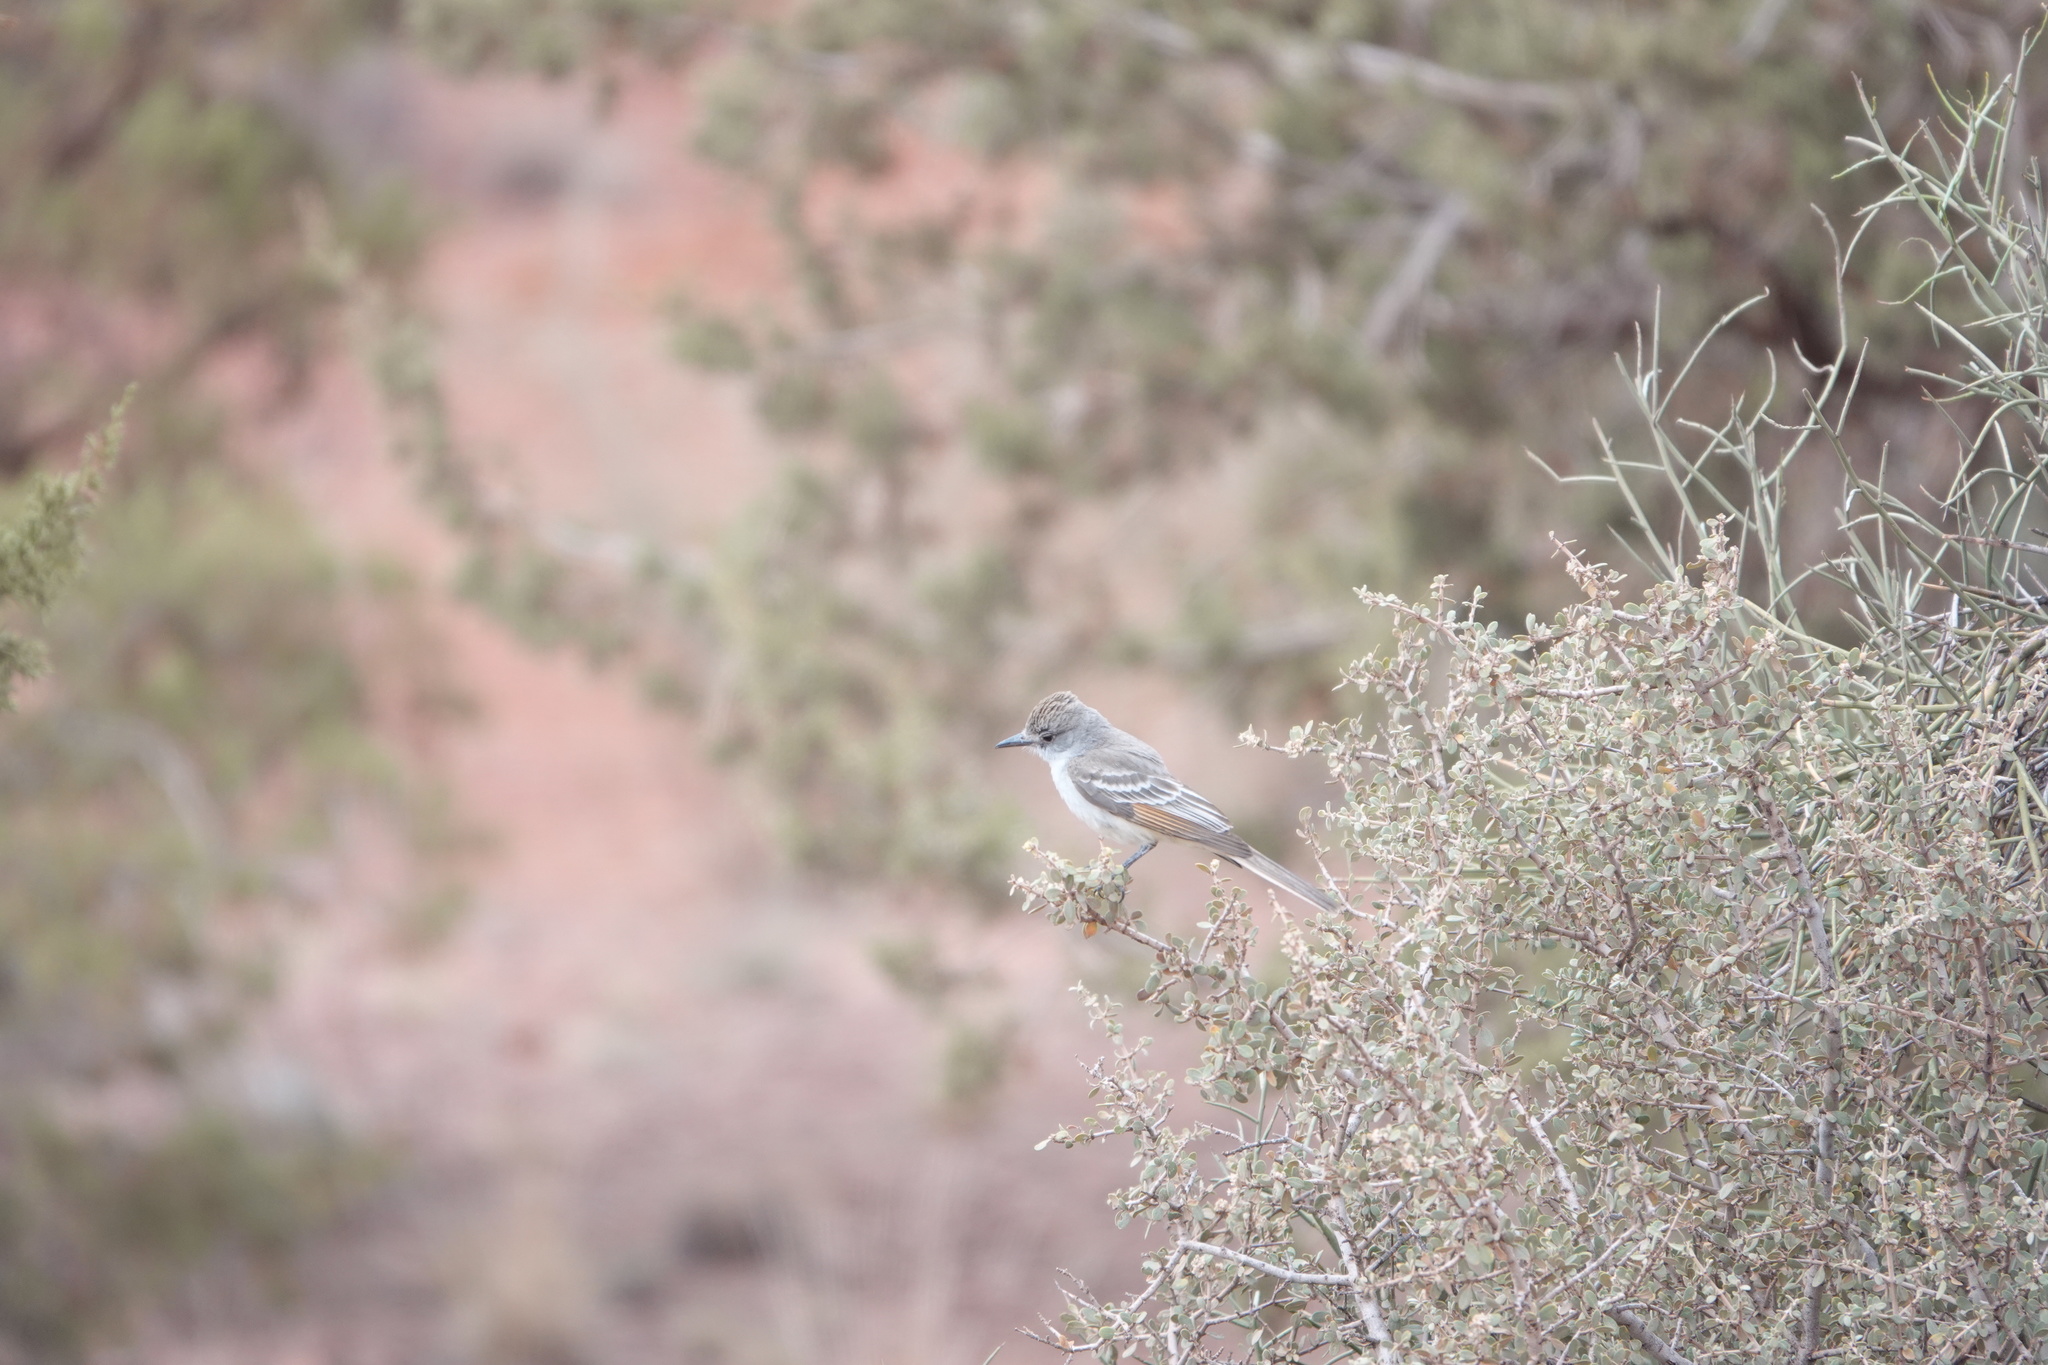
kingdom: Animalia
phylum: Chordata
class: Aves
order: Passeriformes
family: Tyrannidae
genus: Myiarchus
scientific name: Myiarchus cinerascens
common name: Ash-throated flycatcher
